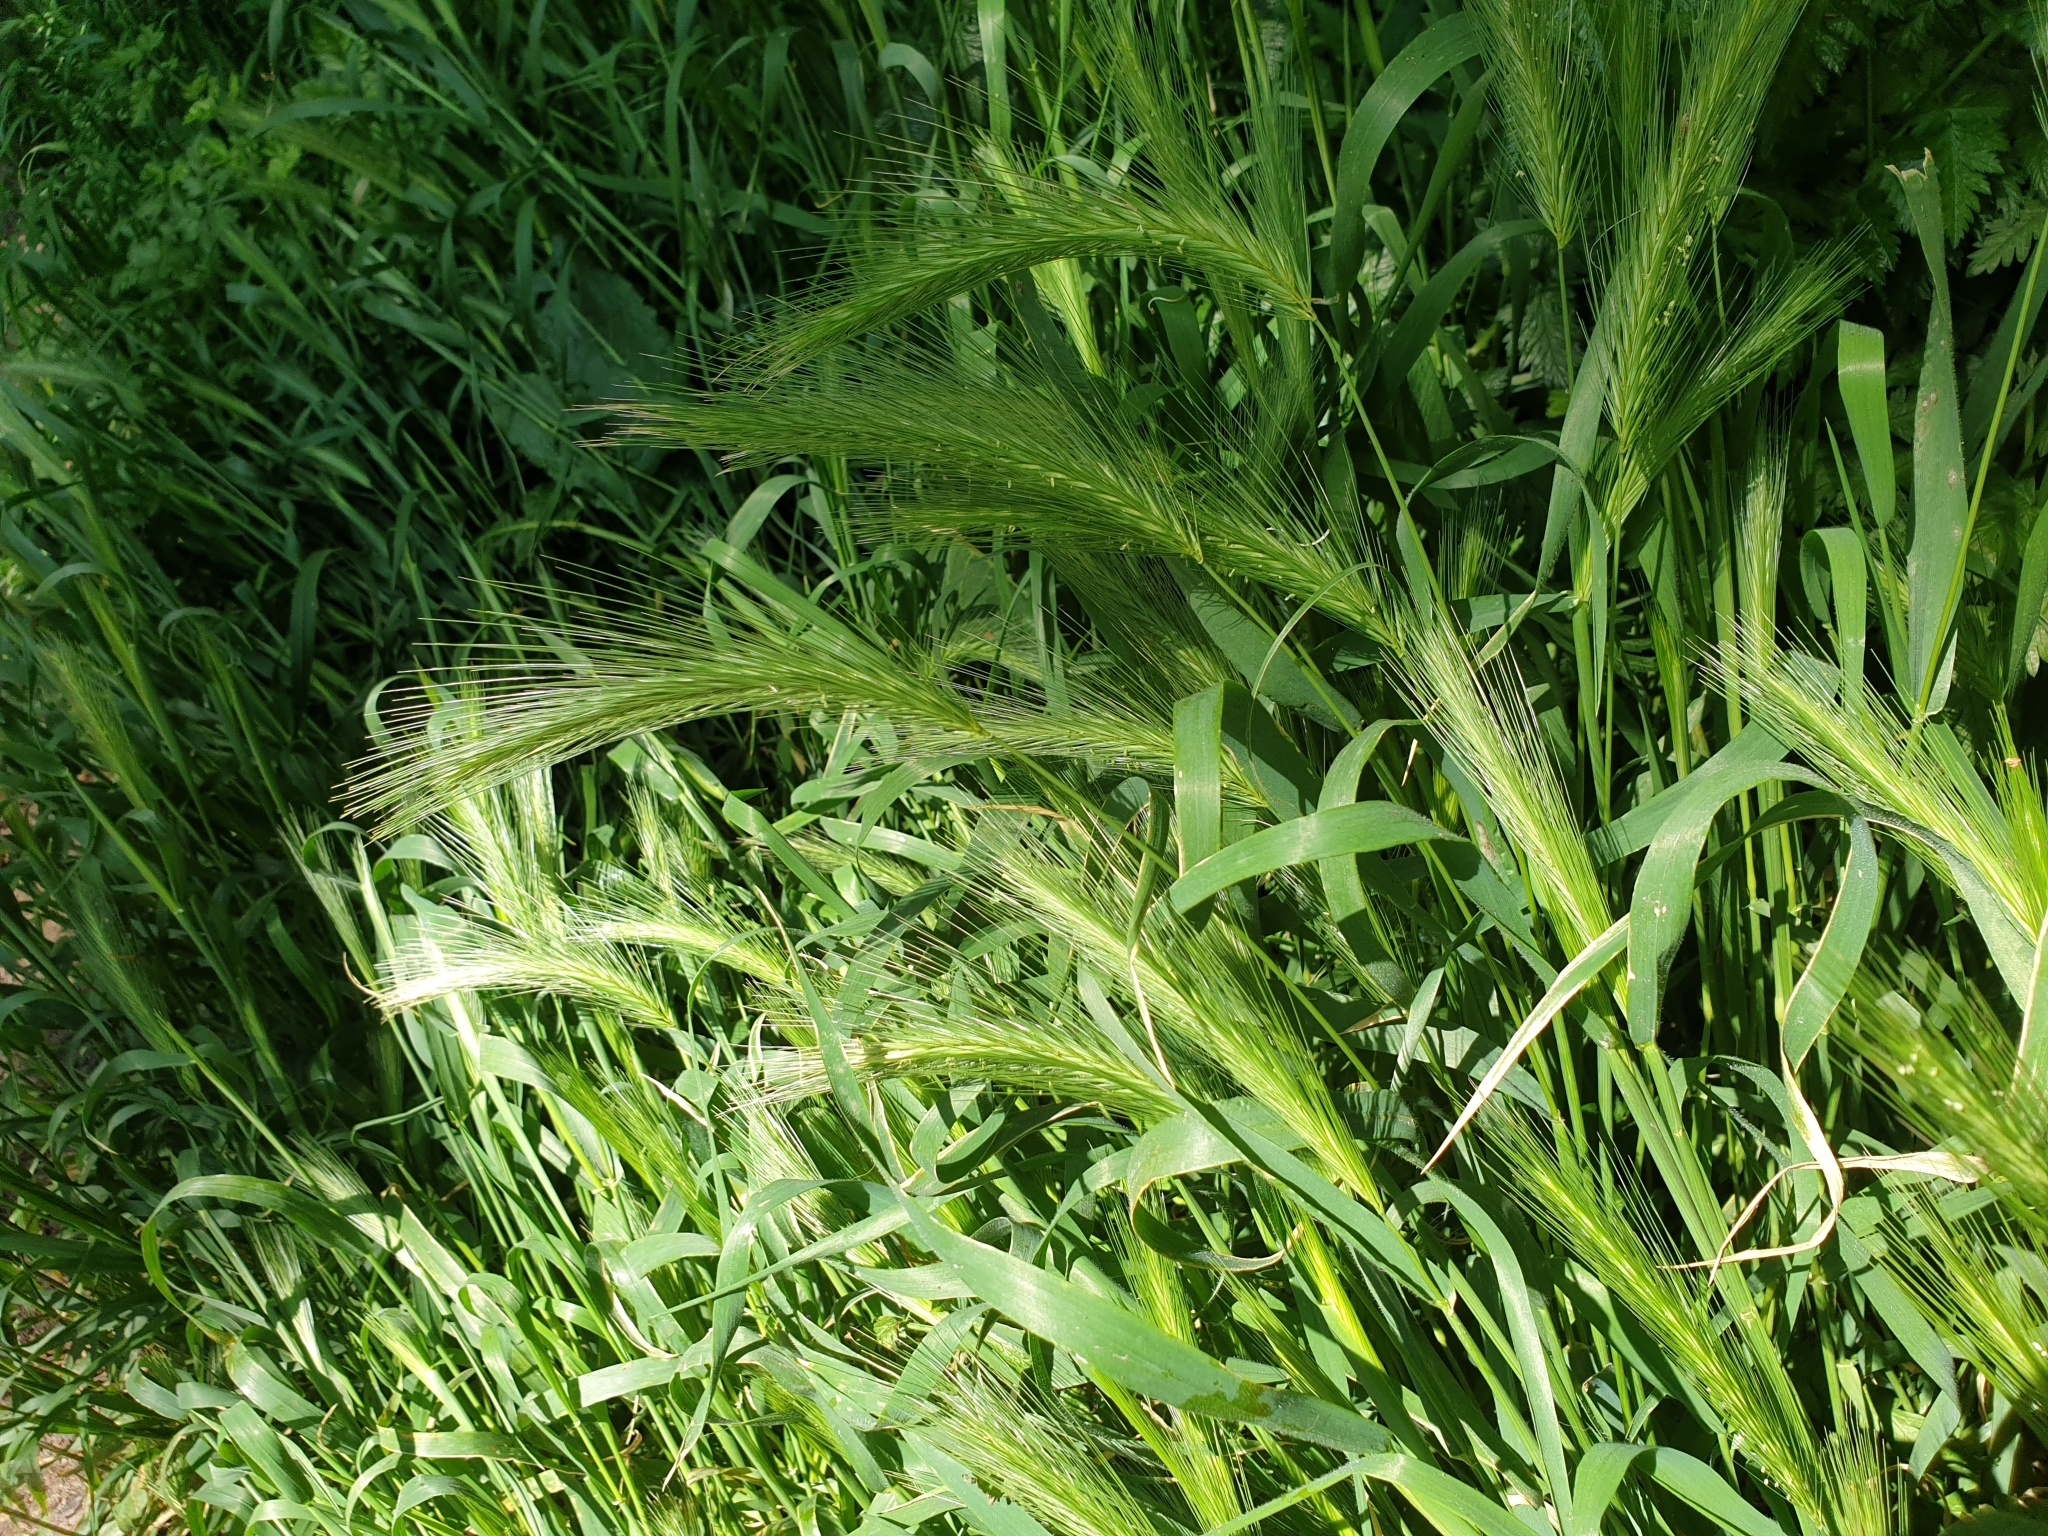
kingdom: Plantae
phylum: Tracheophyta
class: Liliopsida
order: Poales
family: Poaceae
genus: Hordeum
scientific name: Hordeum murinum
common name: Wall barley
